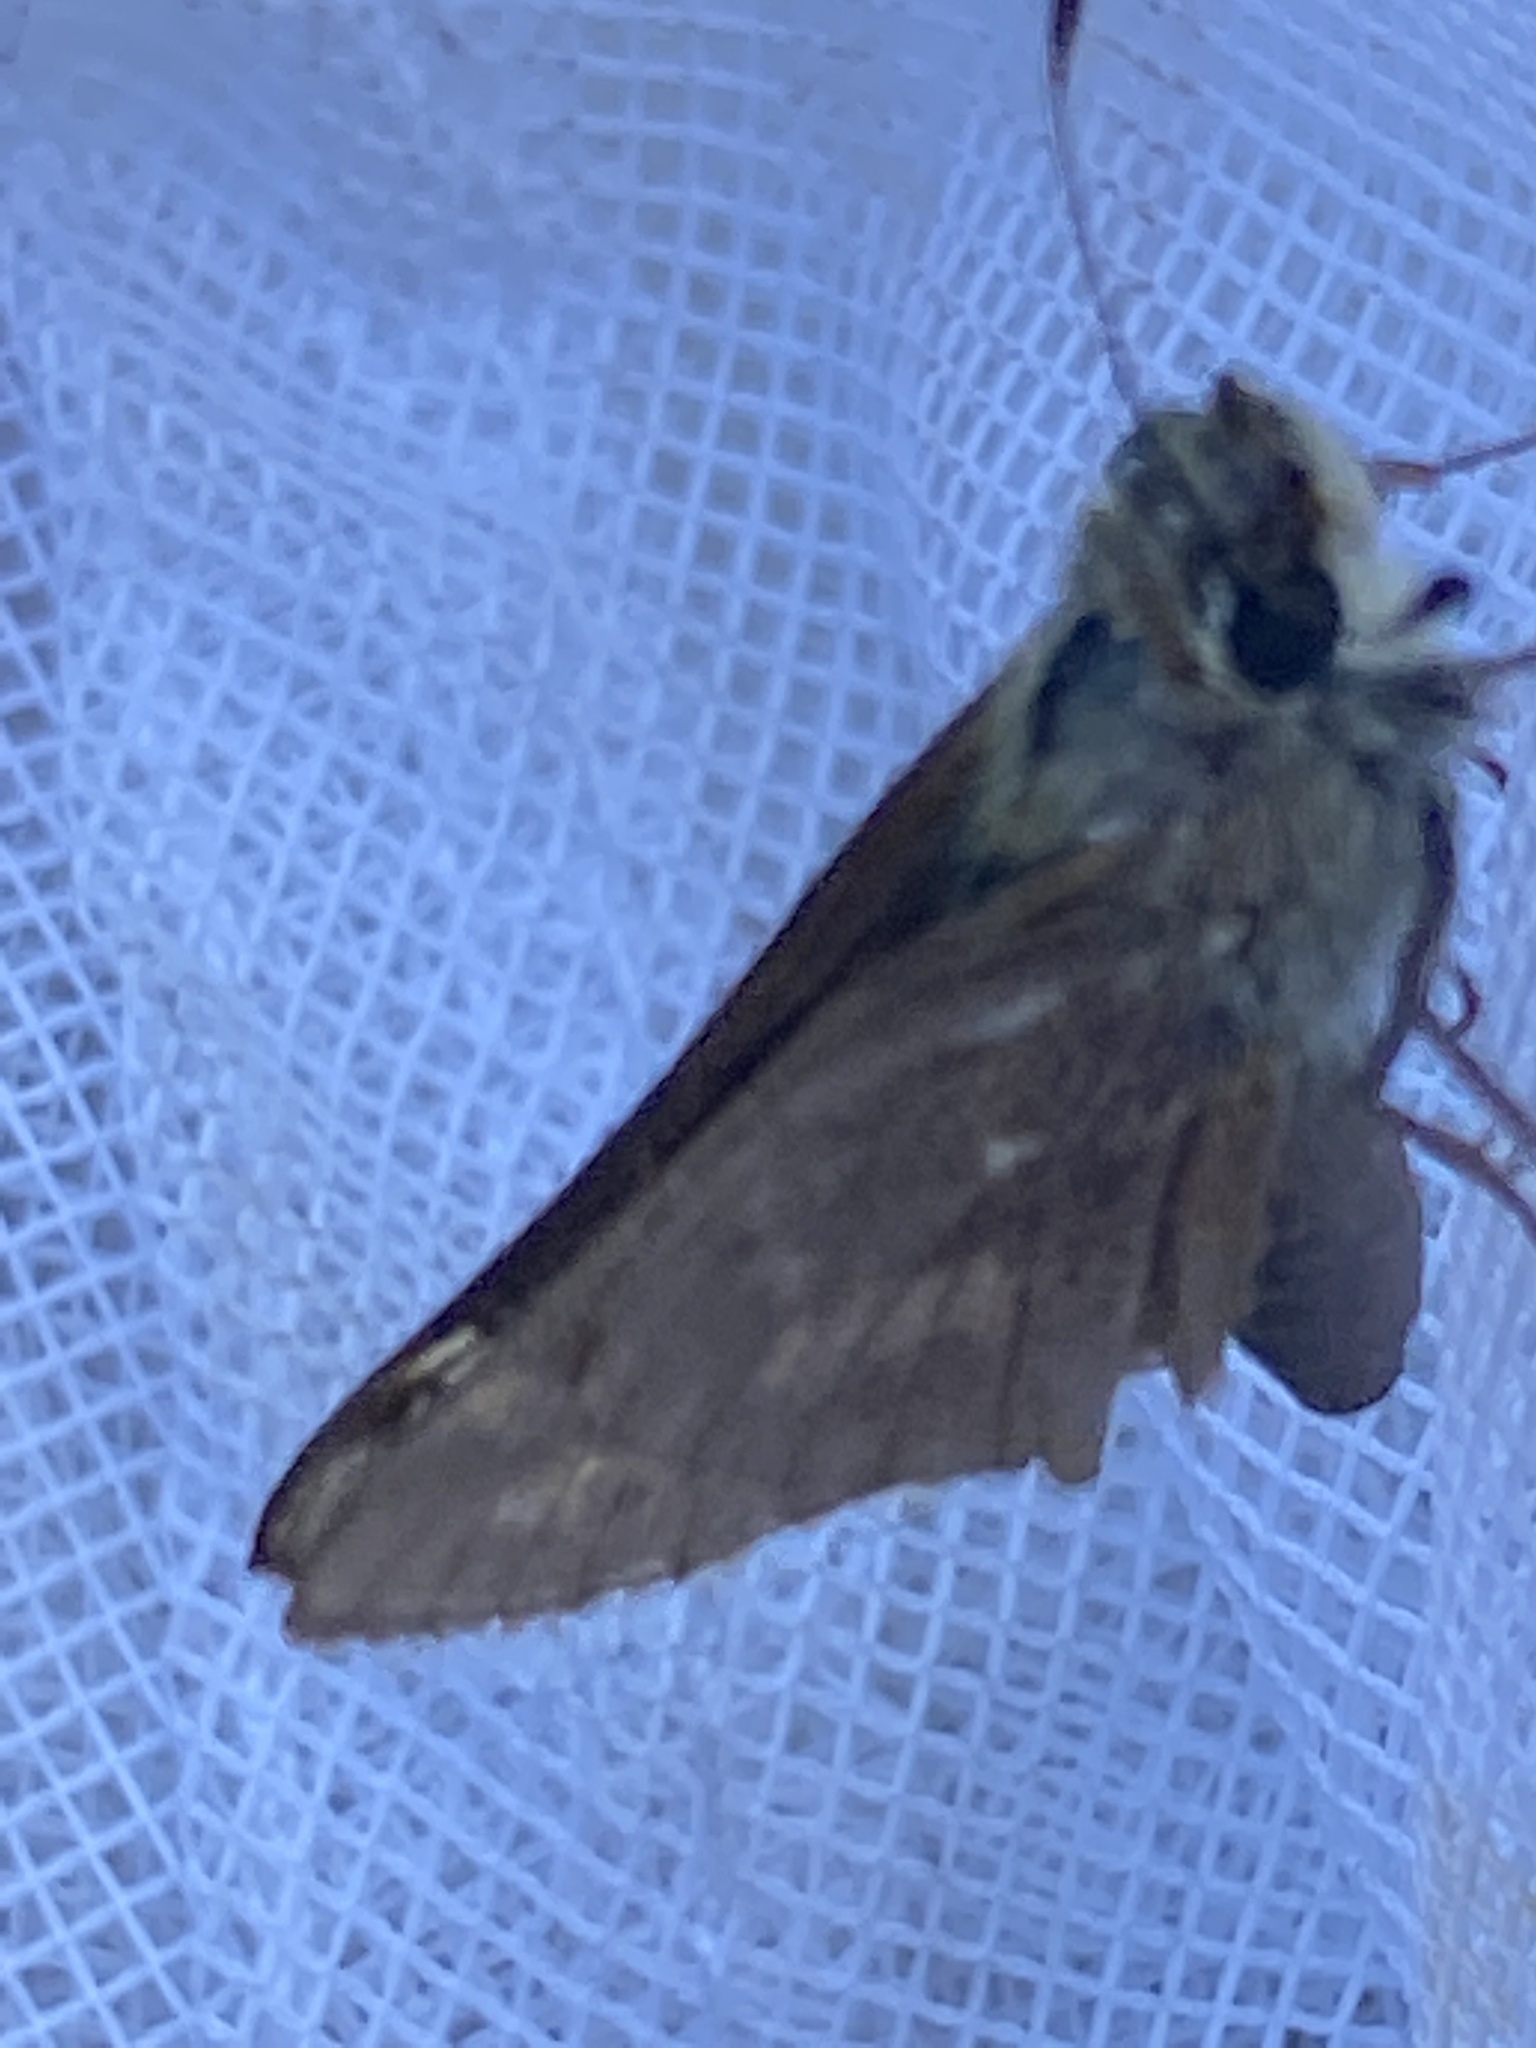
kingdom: Animalia
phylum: Arthropoda
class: Insecta
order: Lepidoptera
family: Hesperiidae
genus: Atalopedes
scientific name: Atalopedes
